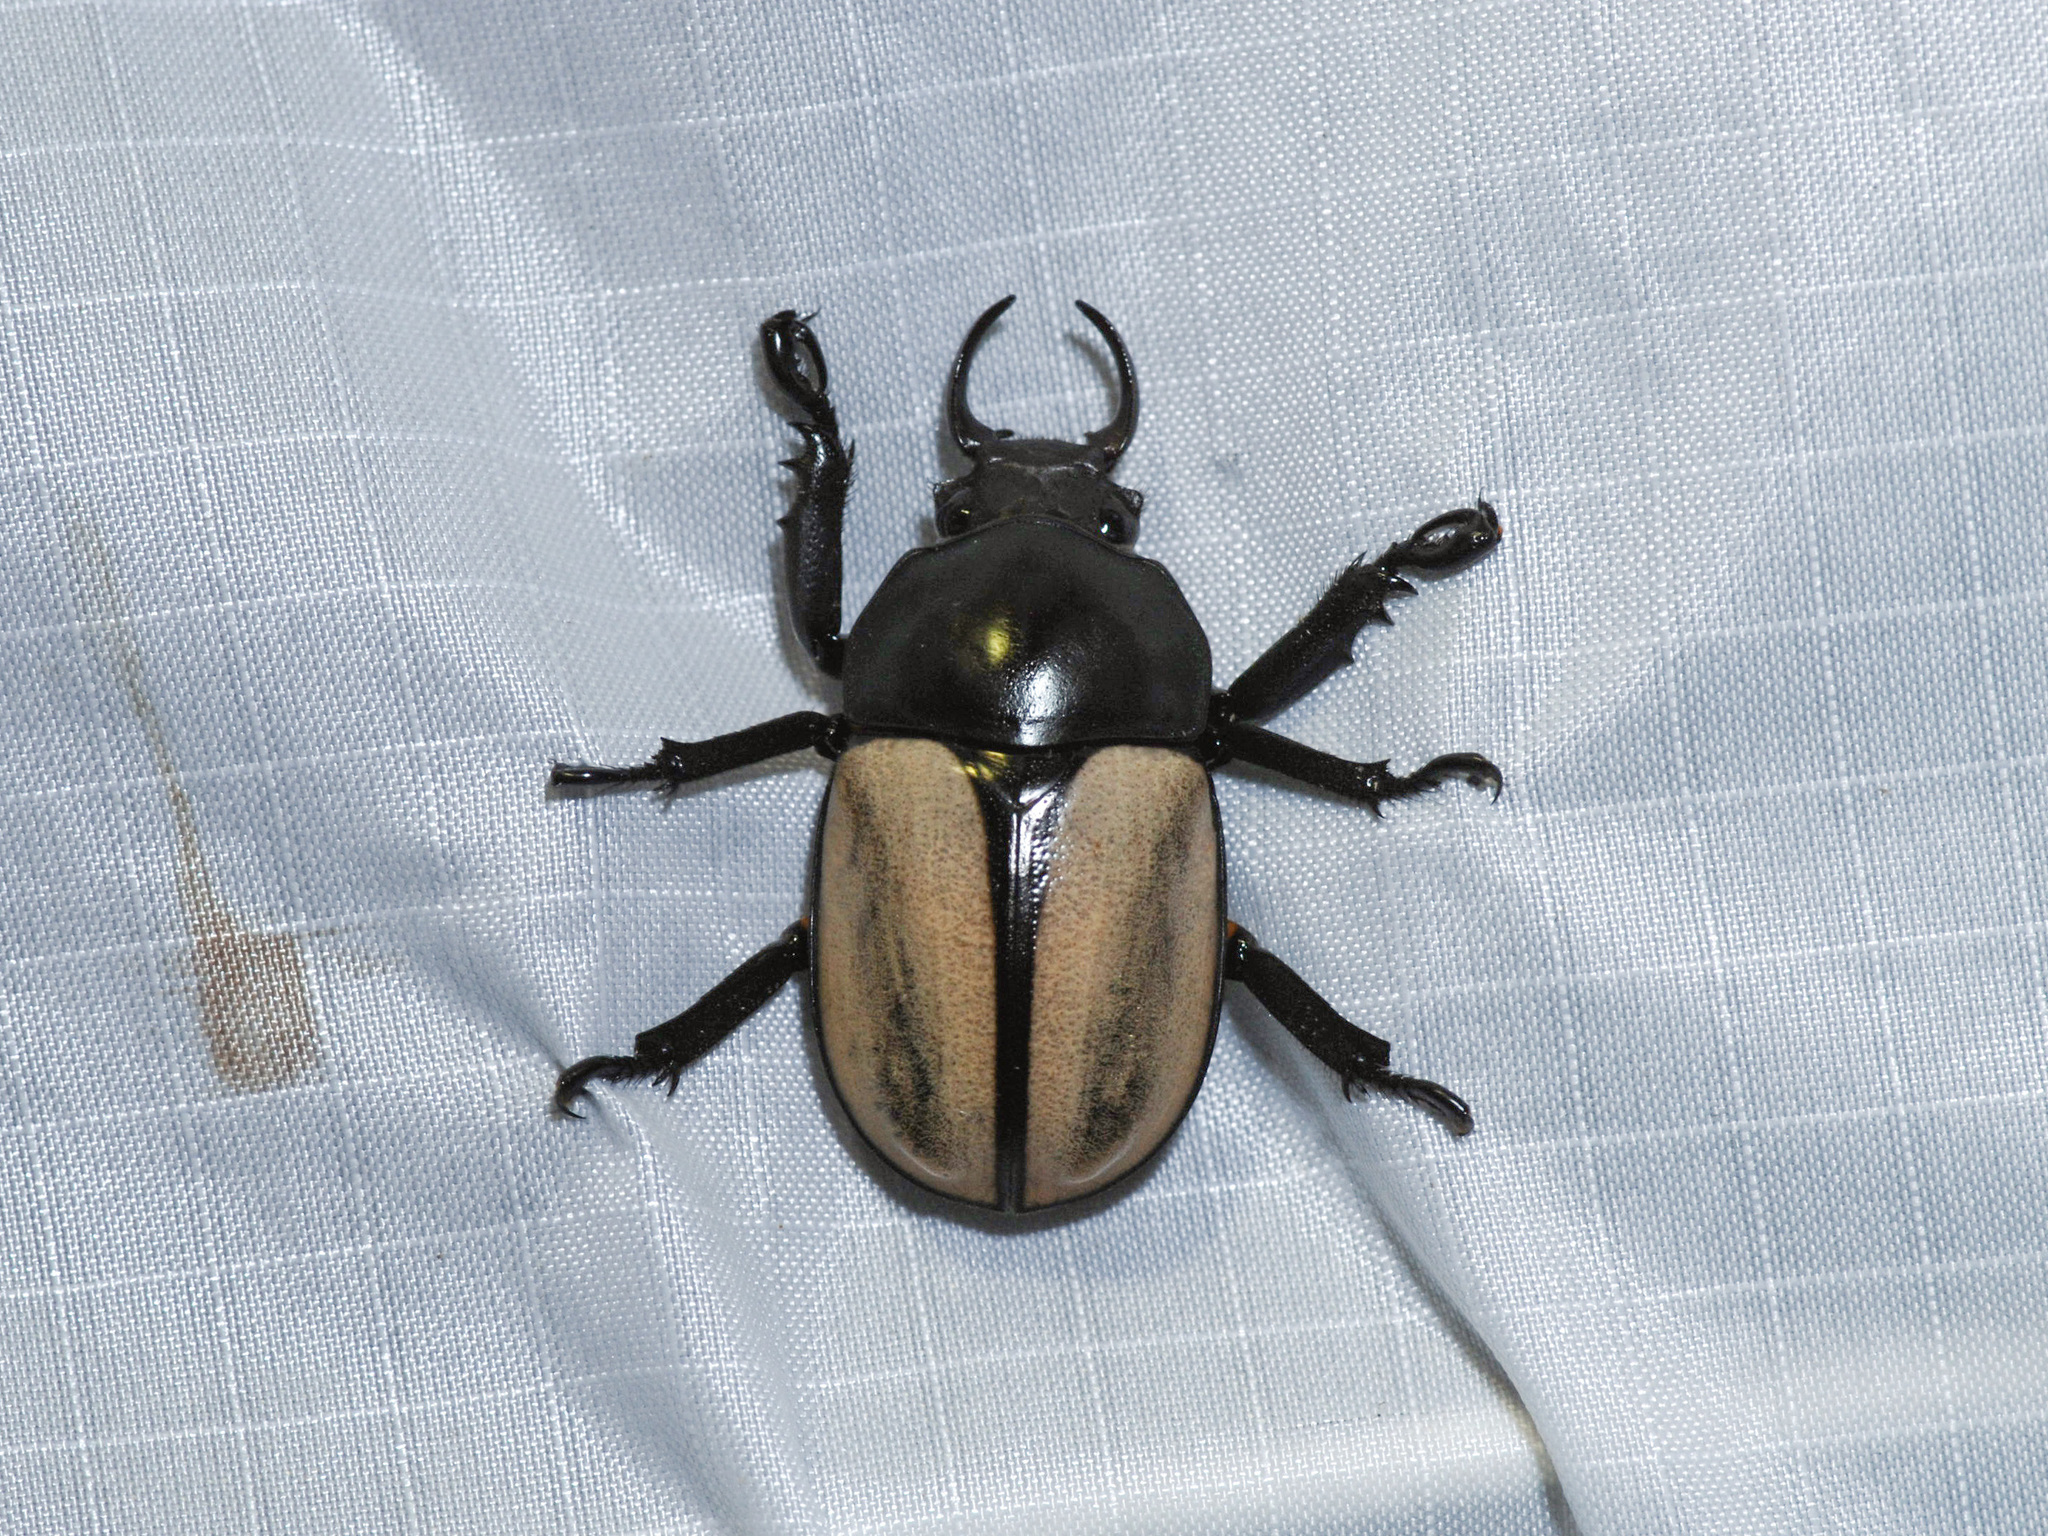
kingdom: Animalia
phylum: Arthropoda
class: Insecta
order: Coleoptera
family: Scarabaeidae
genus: Fruhstorferia
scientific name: Fruhstorferia flavipennis
